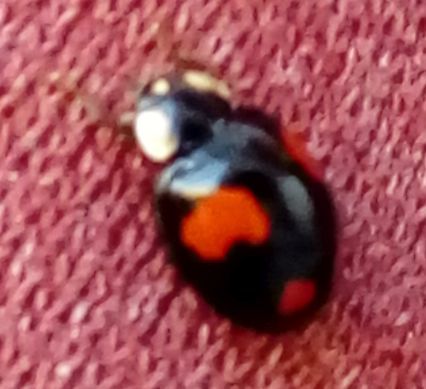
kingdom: Animalia
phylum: Arthropoda
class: Insecta
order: Coleoptera
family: Coccinellidae
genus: Harmonia
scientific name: Harmonia axyridis
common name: Harlequin ladybird
